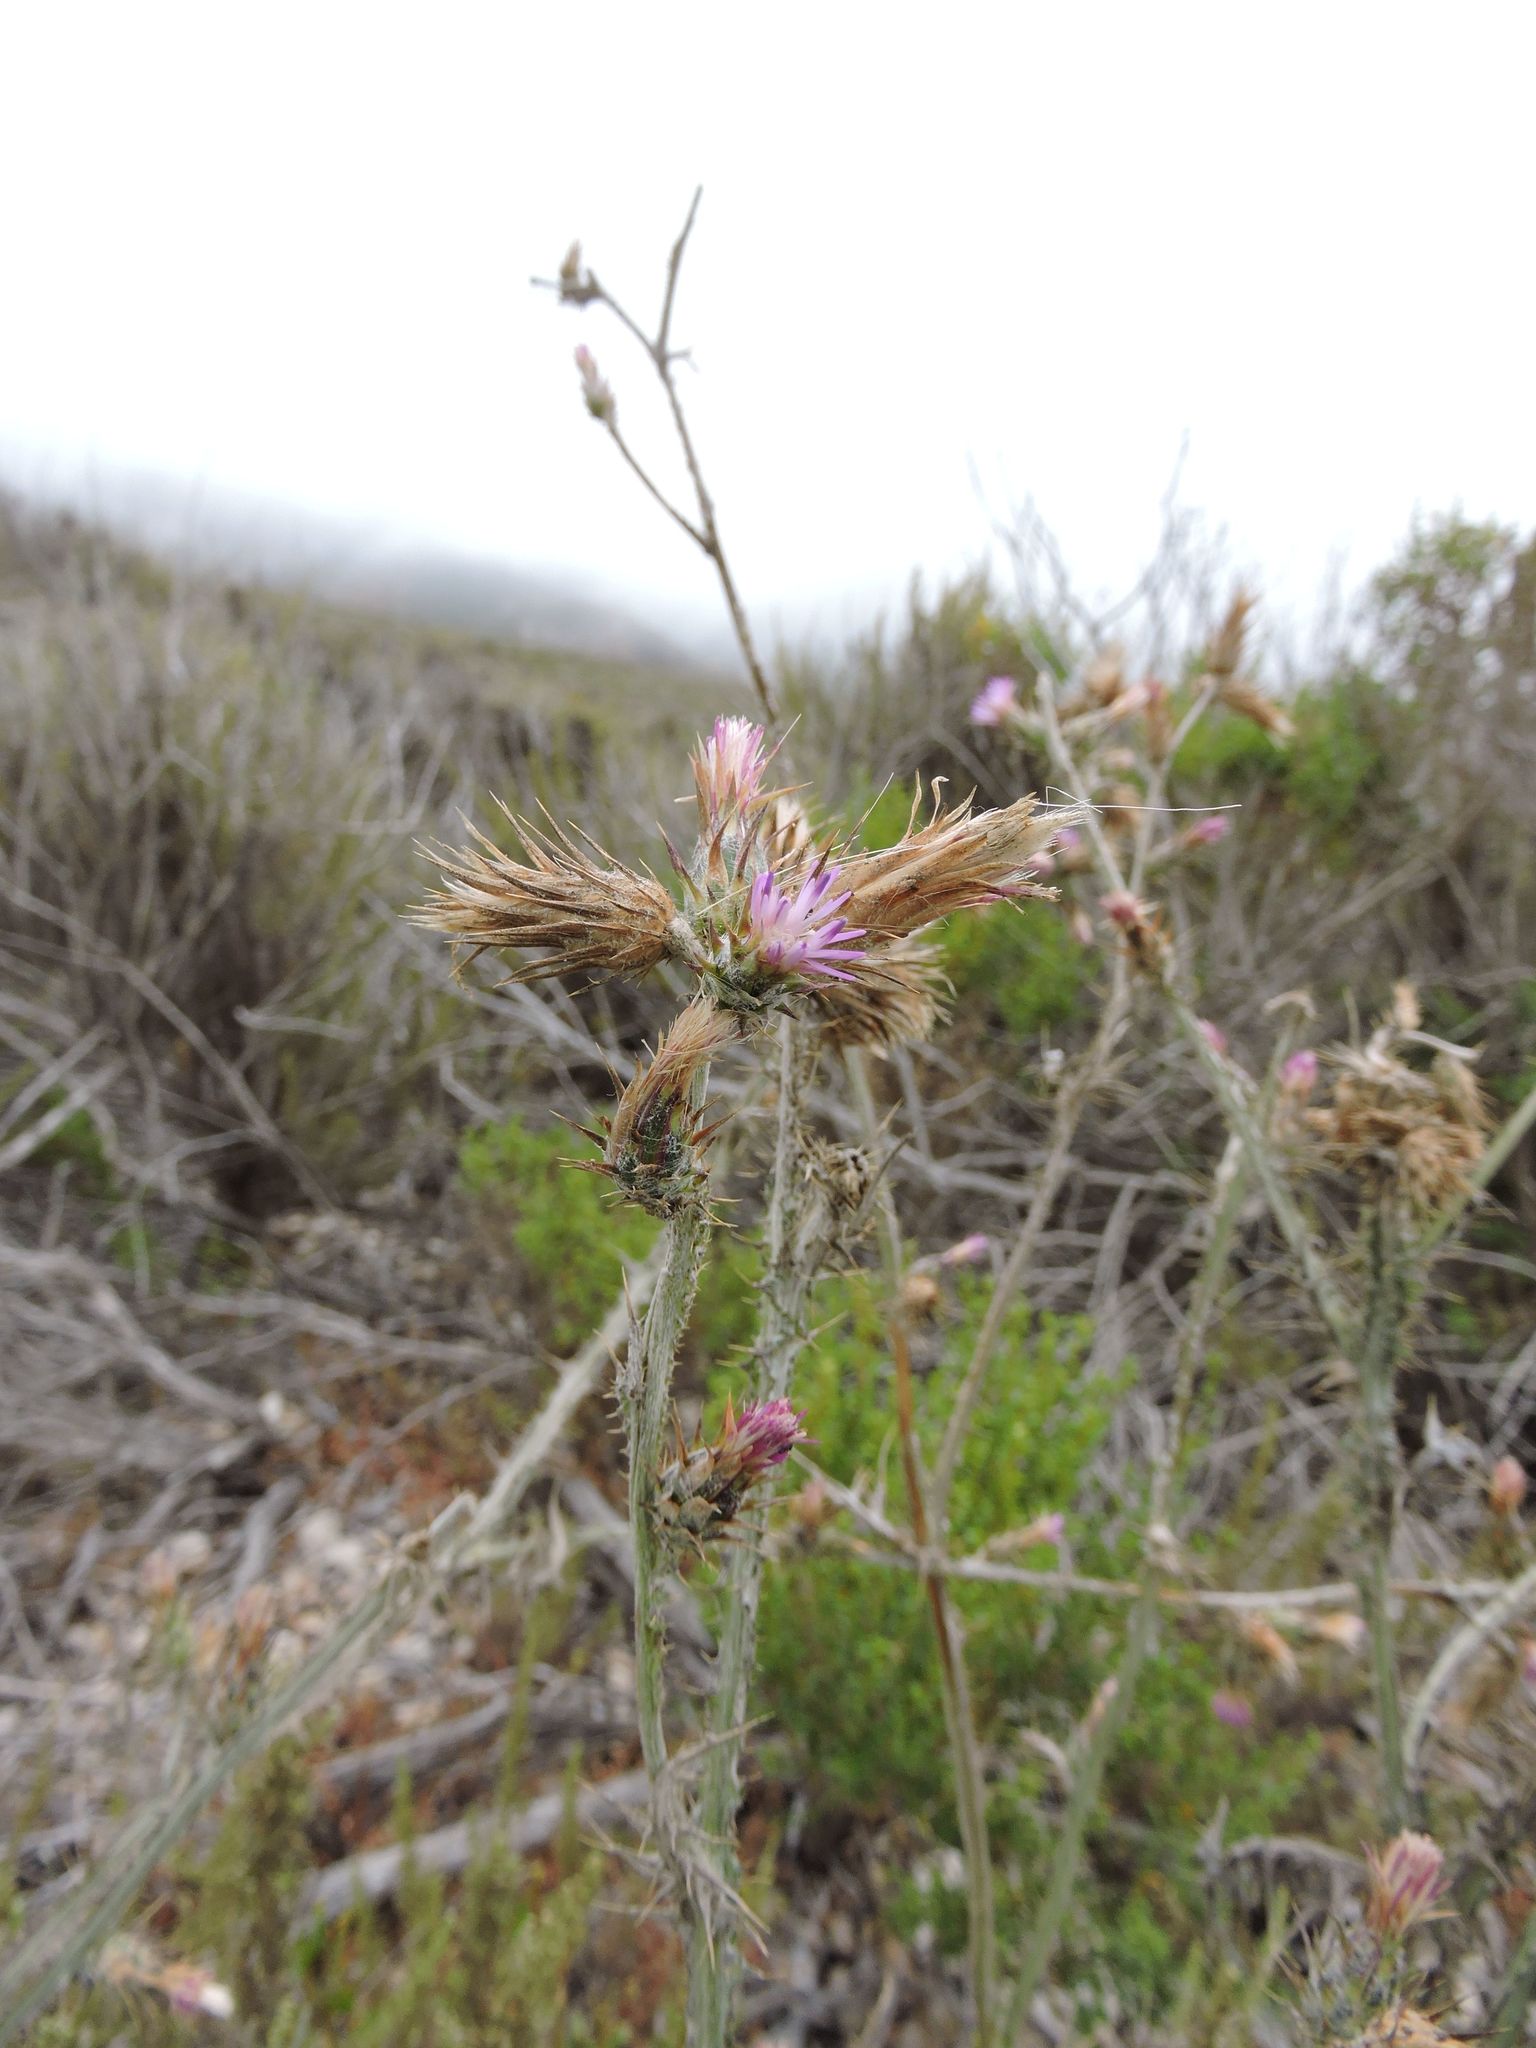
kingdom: Plantae
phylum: Tracheophyta
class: Magnoliopsida
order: Asterales
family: Asteraceae
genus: Carduus
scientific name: Carduus pycnocephalus
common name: Plymouth thistle
